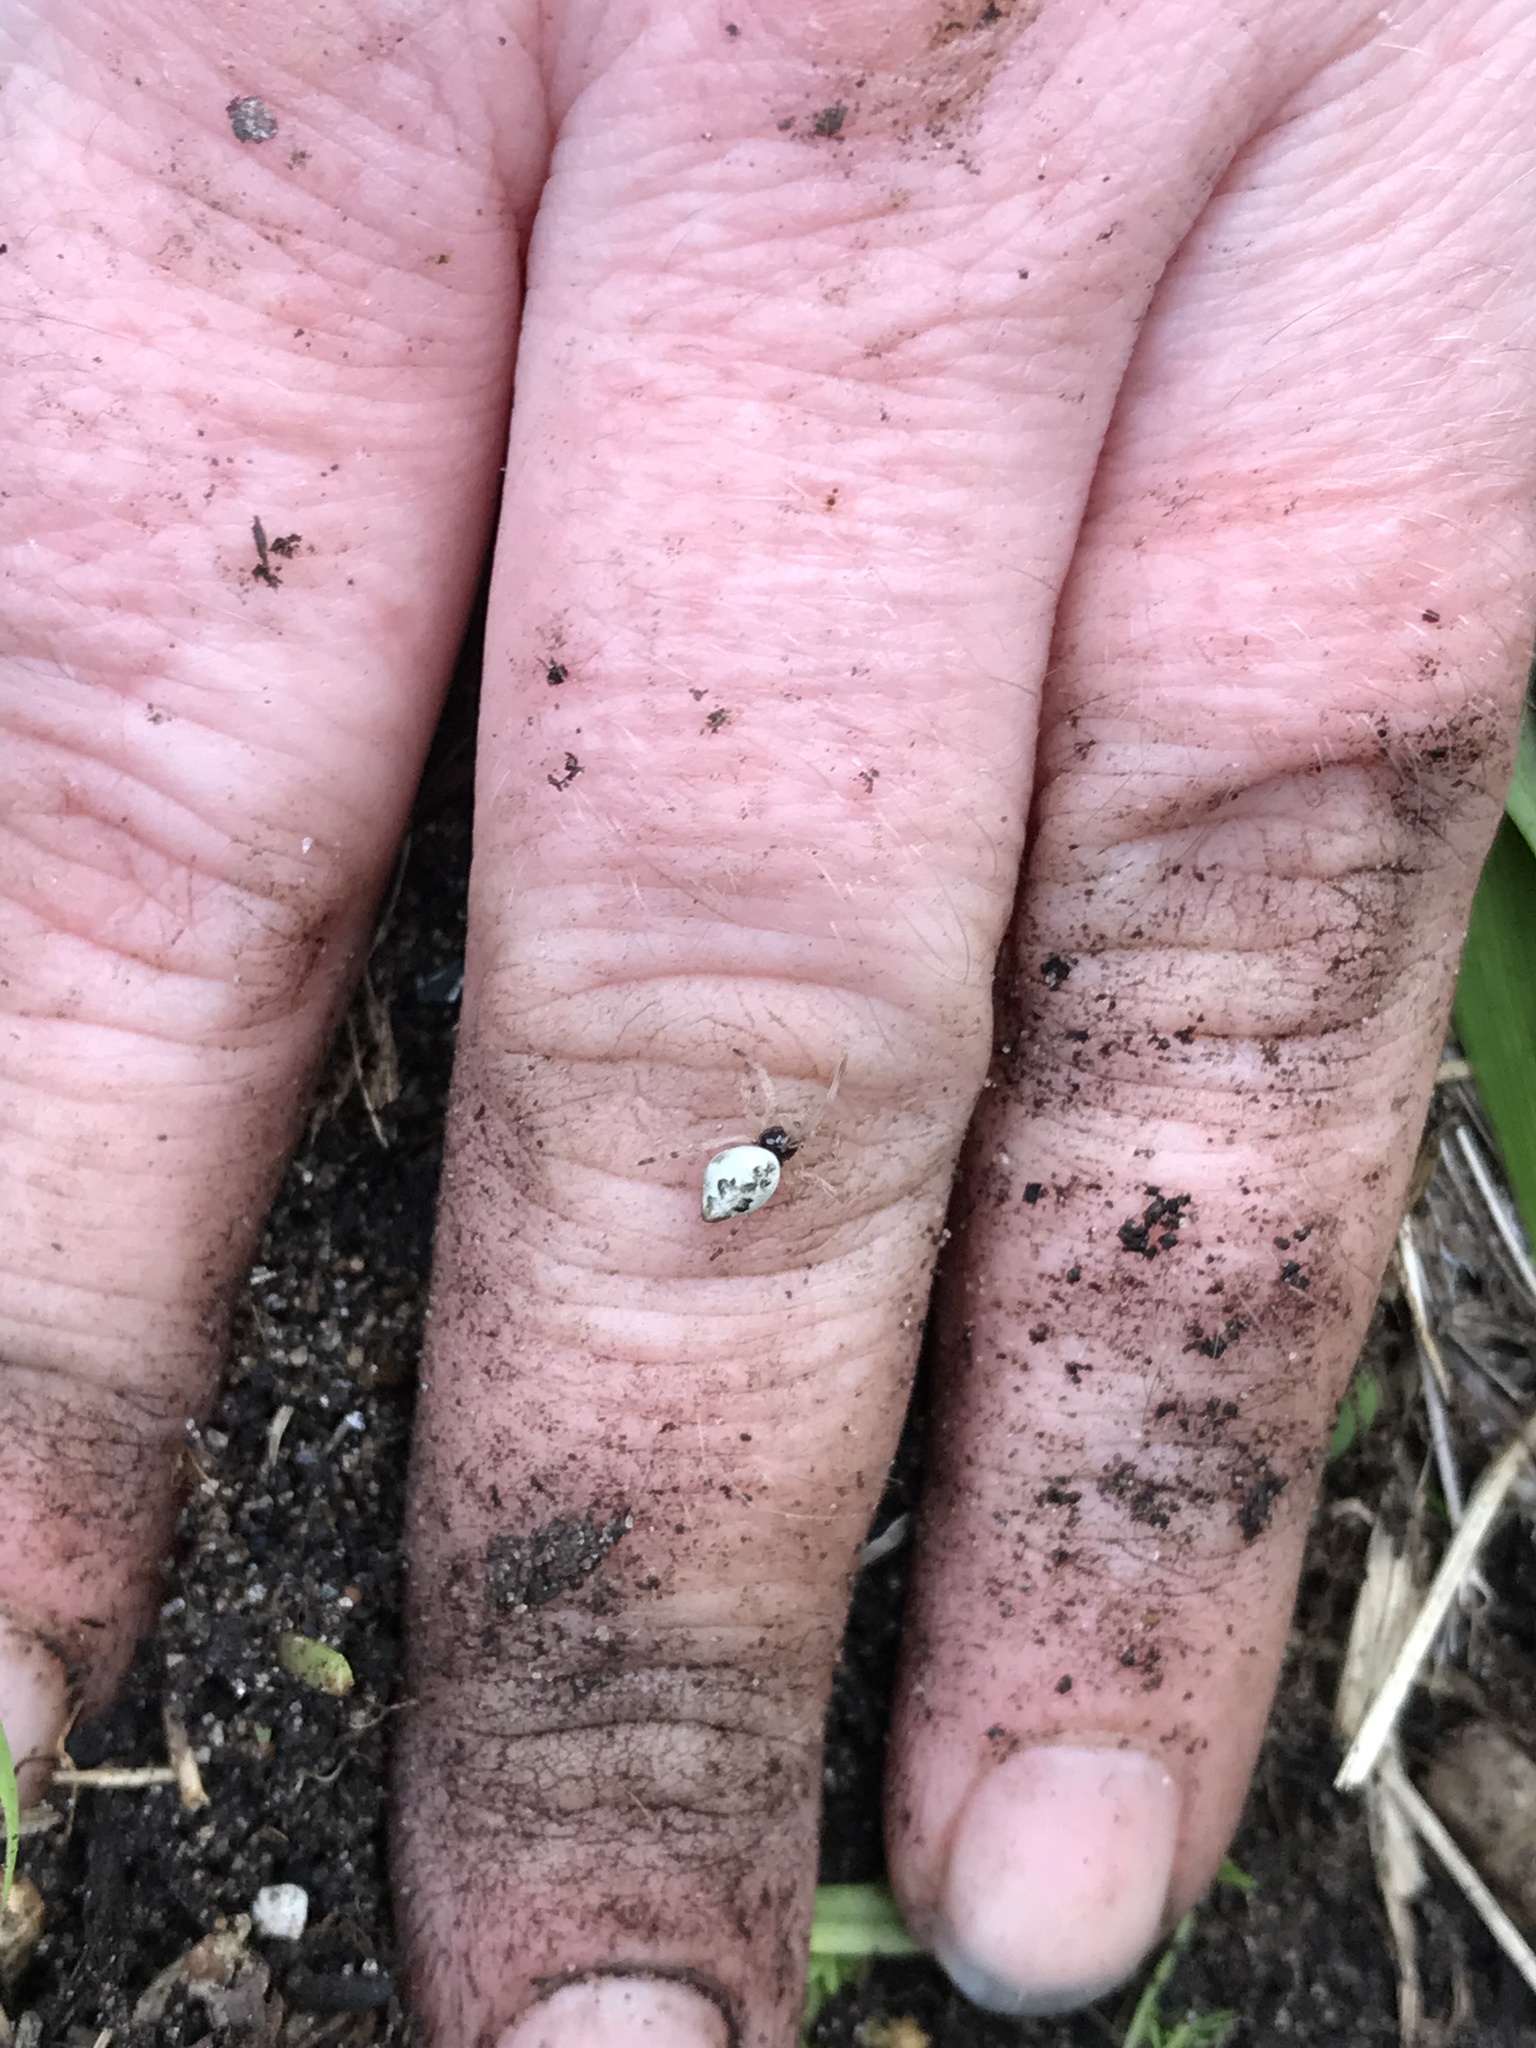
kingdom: Animalia
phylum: Arthropoda
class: Arachnida
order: Araneae
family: Araneidae
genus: Cyclosa
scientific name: Cyclosa conica
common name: Conical trashline orbweaver
